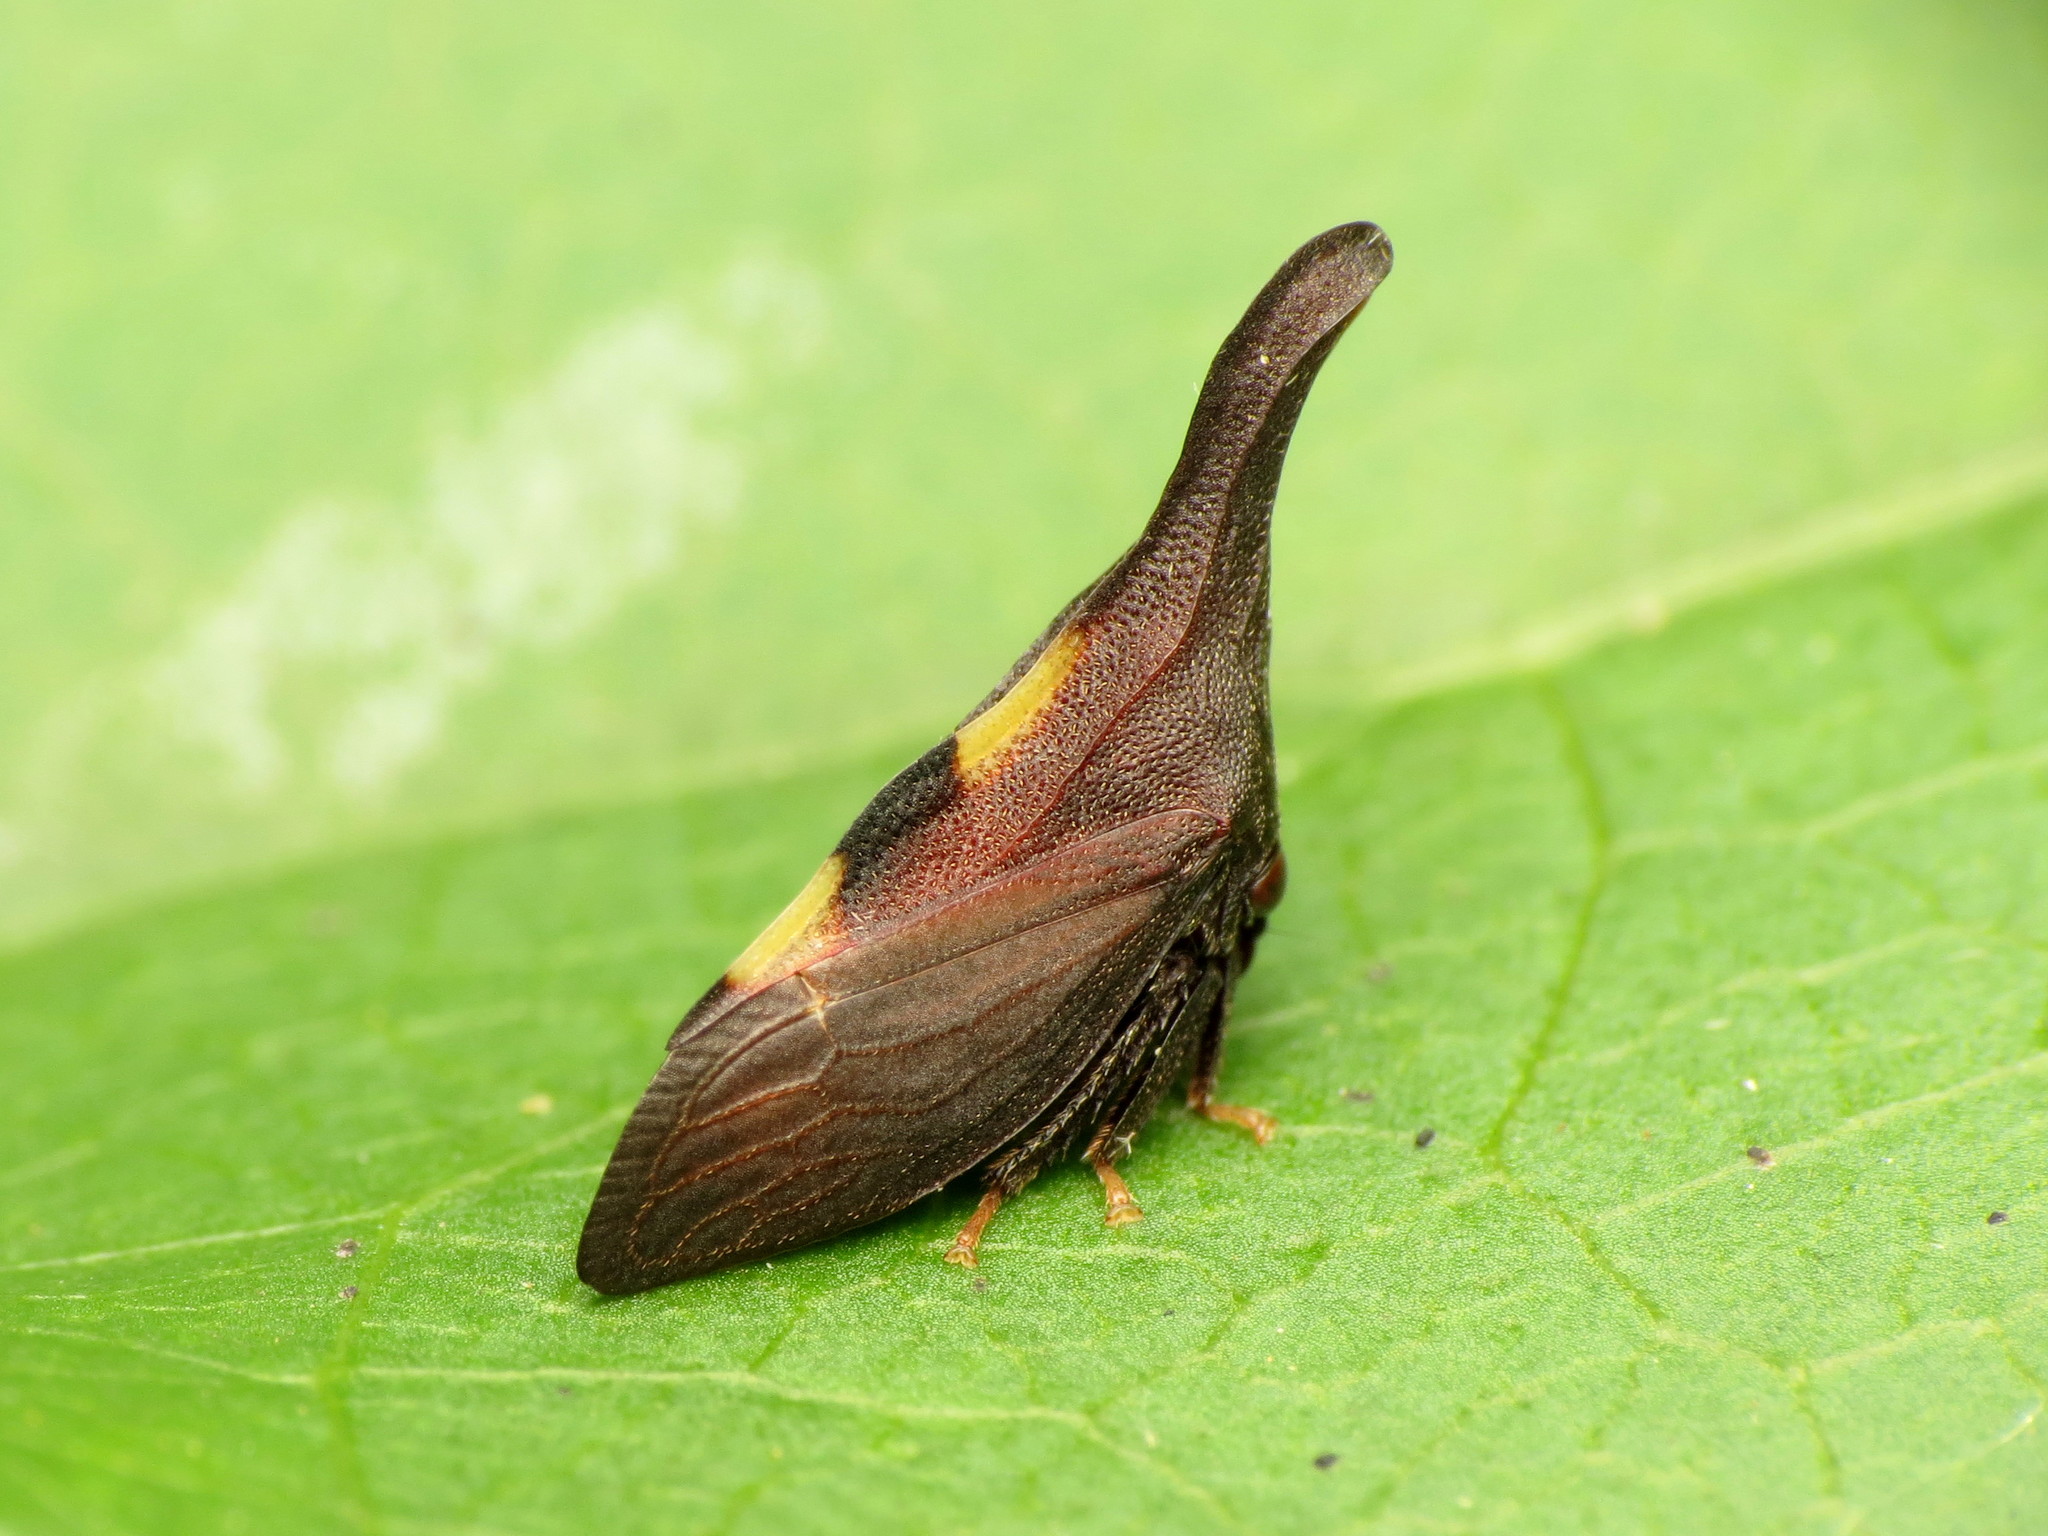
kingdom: Animalia
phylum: Arthropoda
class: Insecta
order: Hemiptera
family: Membracidae
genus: Enchenopa
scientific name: Enchenopa
